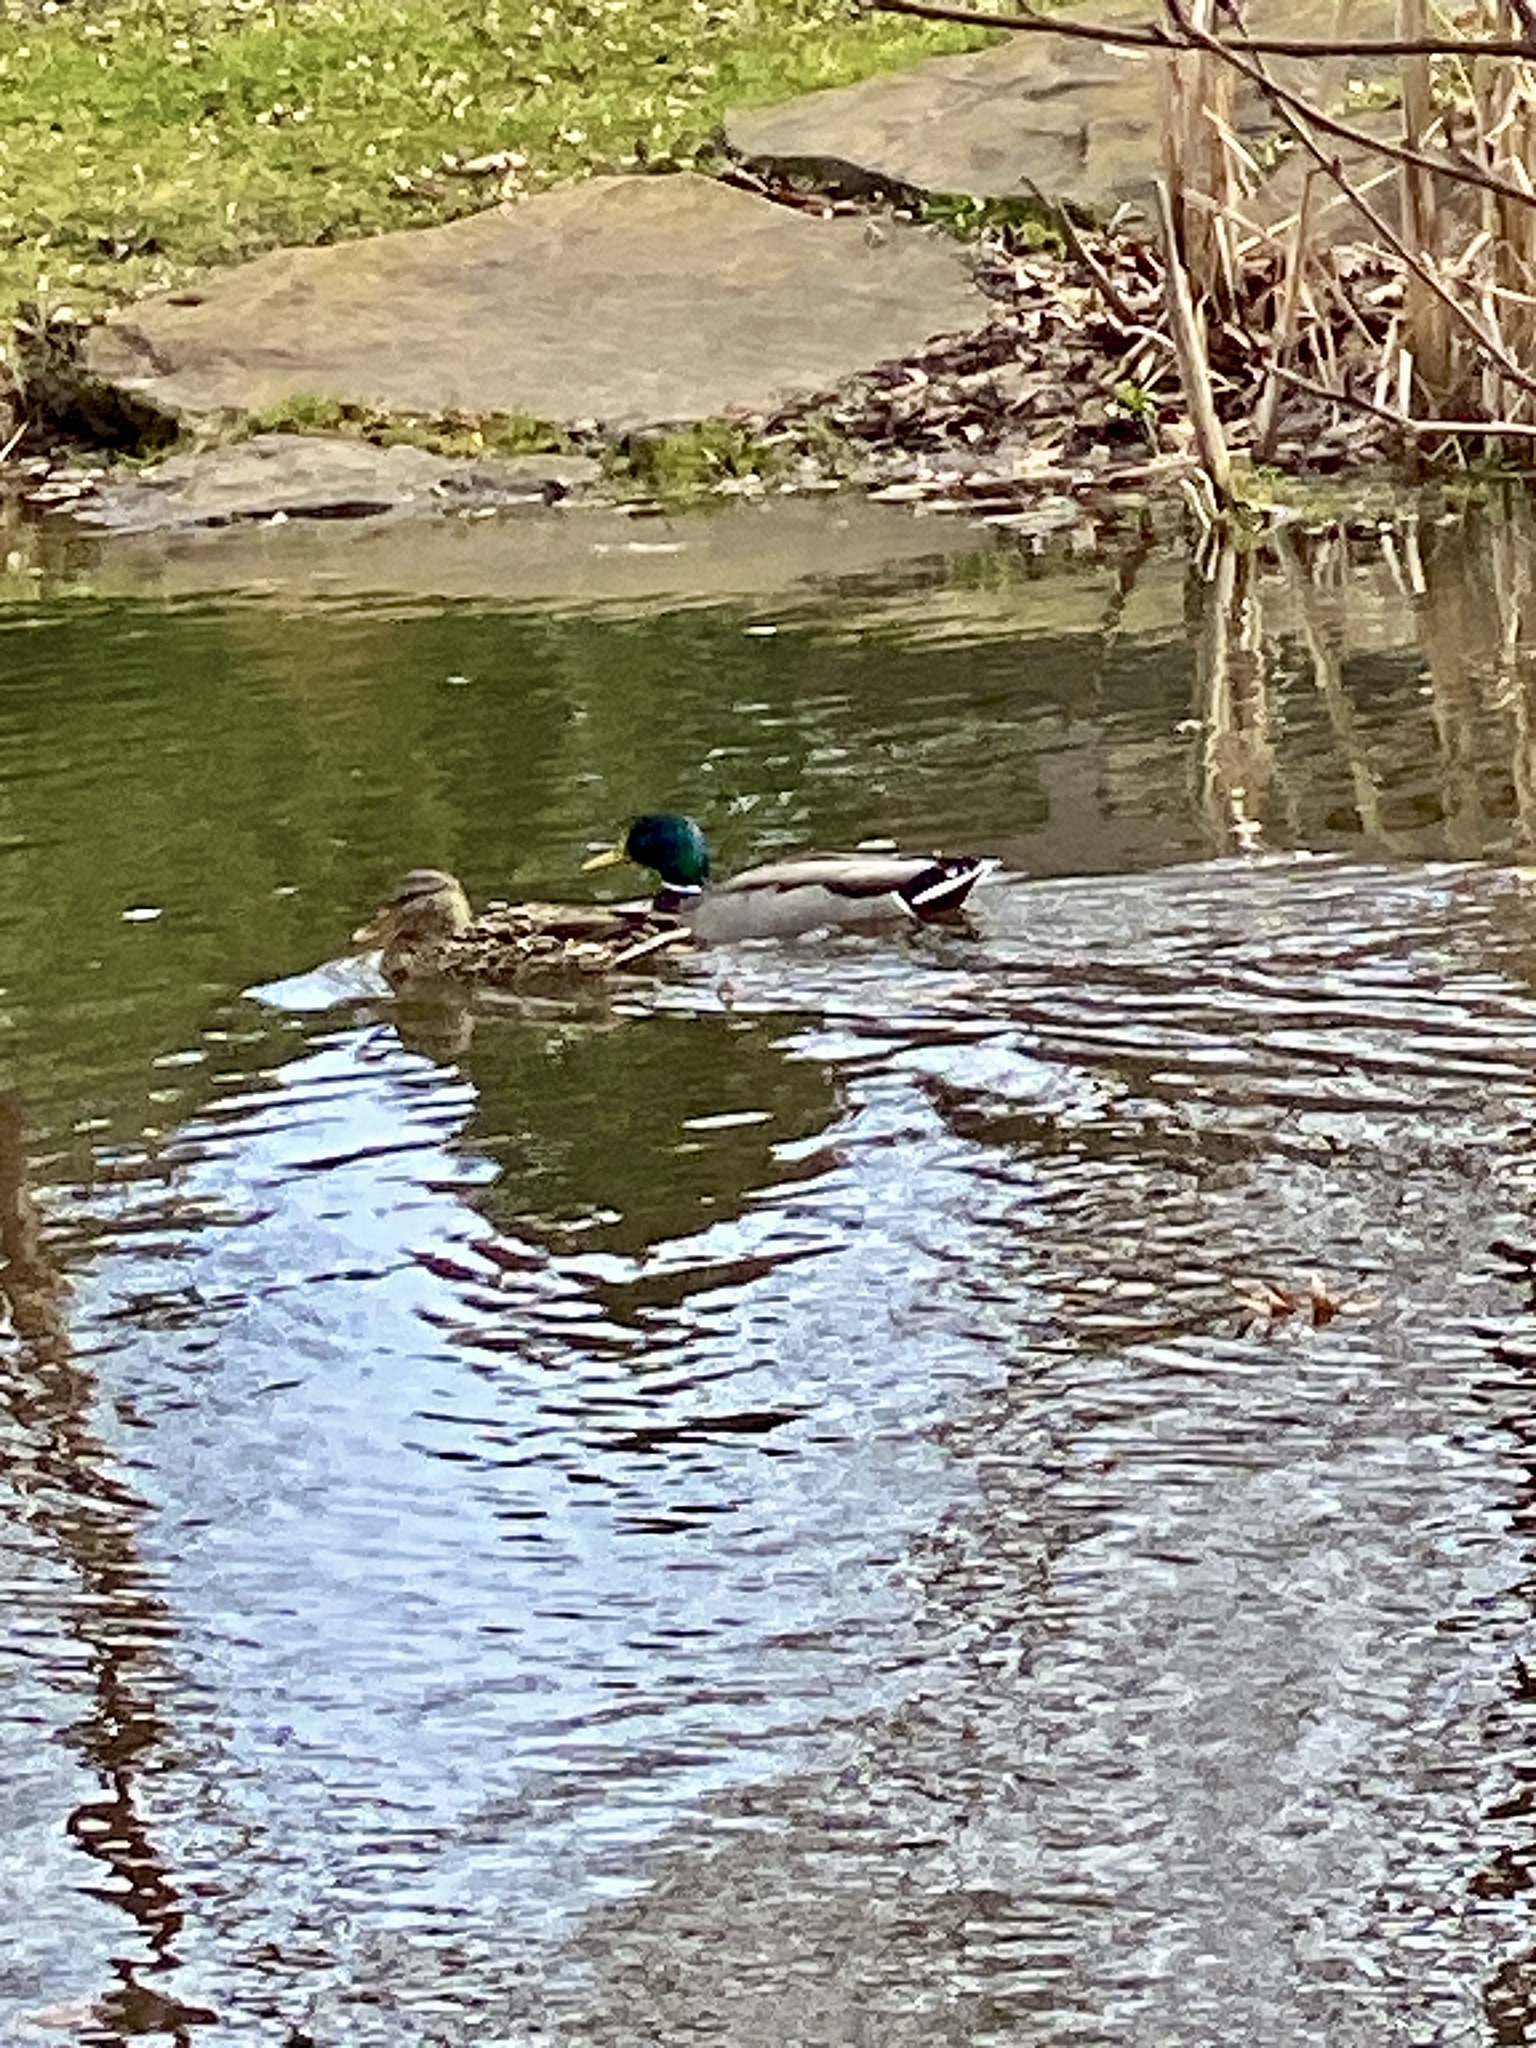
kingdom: Animalia
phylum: Chordata
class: Aves
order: Anseriformes
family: Anatidae
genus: Anas
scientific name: Anas platyrhynchos
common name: Mallard
